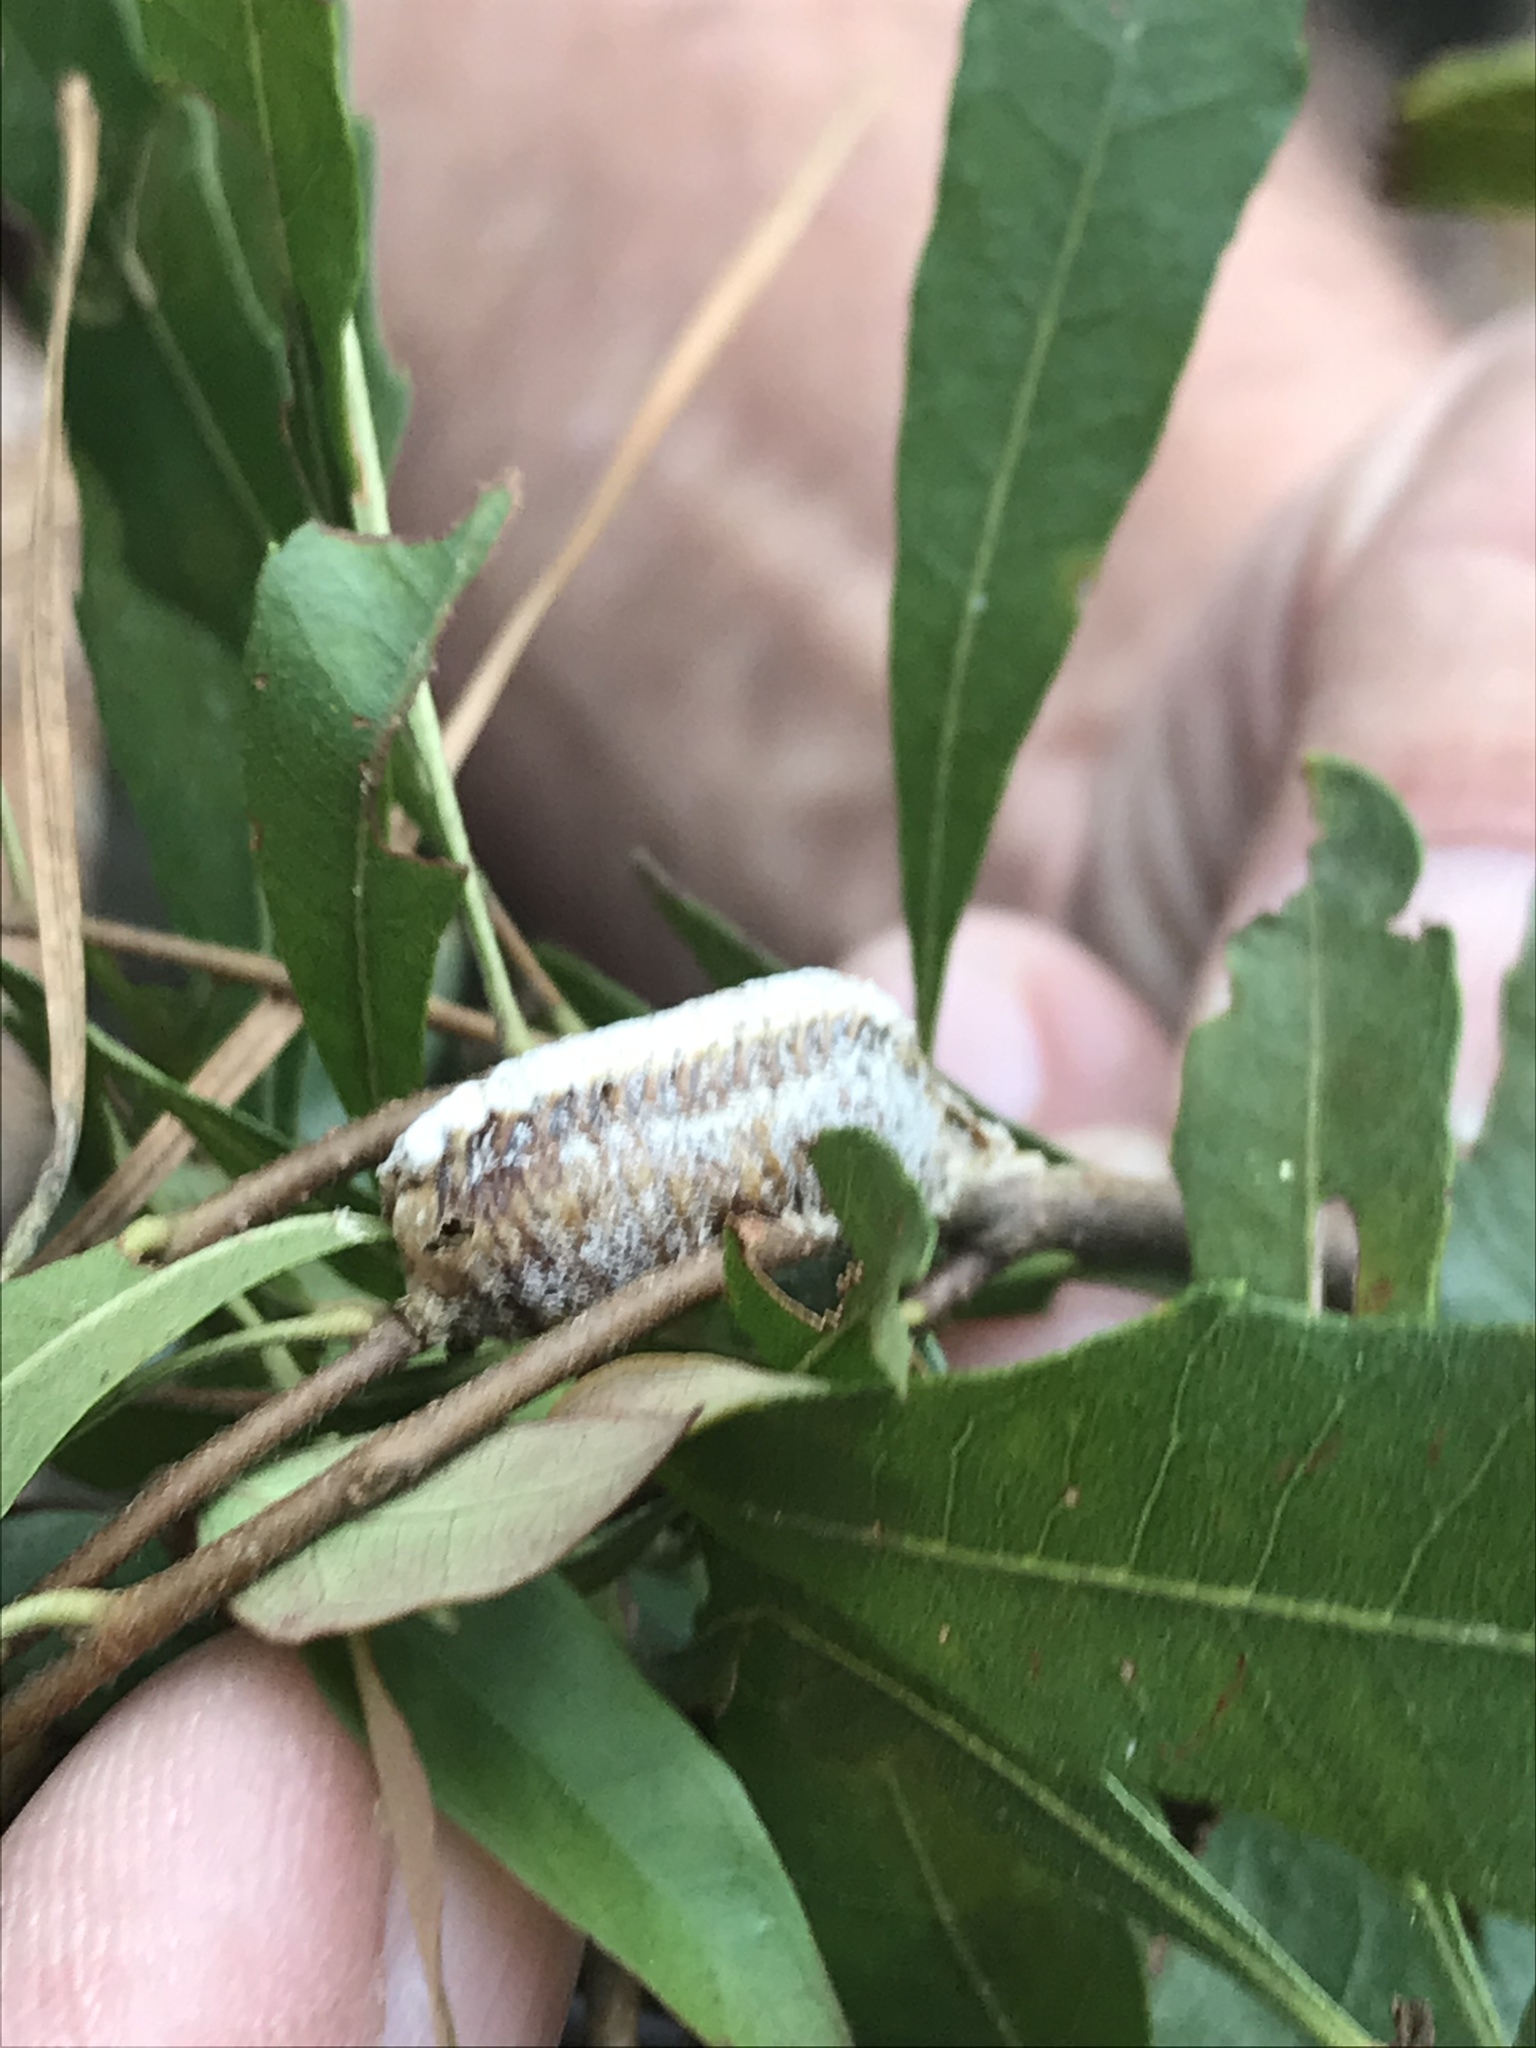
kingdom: Animalia
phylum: Arthropoda
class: Insecta
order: Mantodea
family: Mantidae
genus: Stagmomantis
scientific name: Stagmomantis carolina
